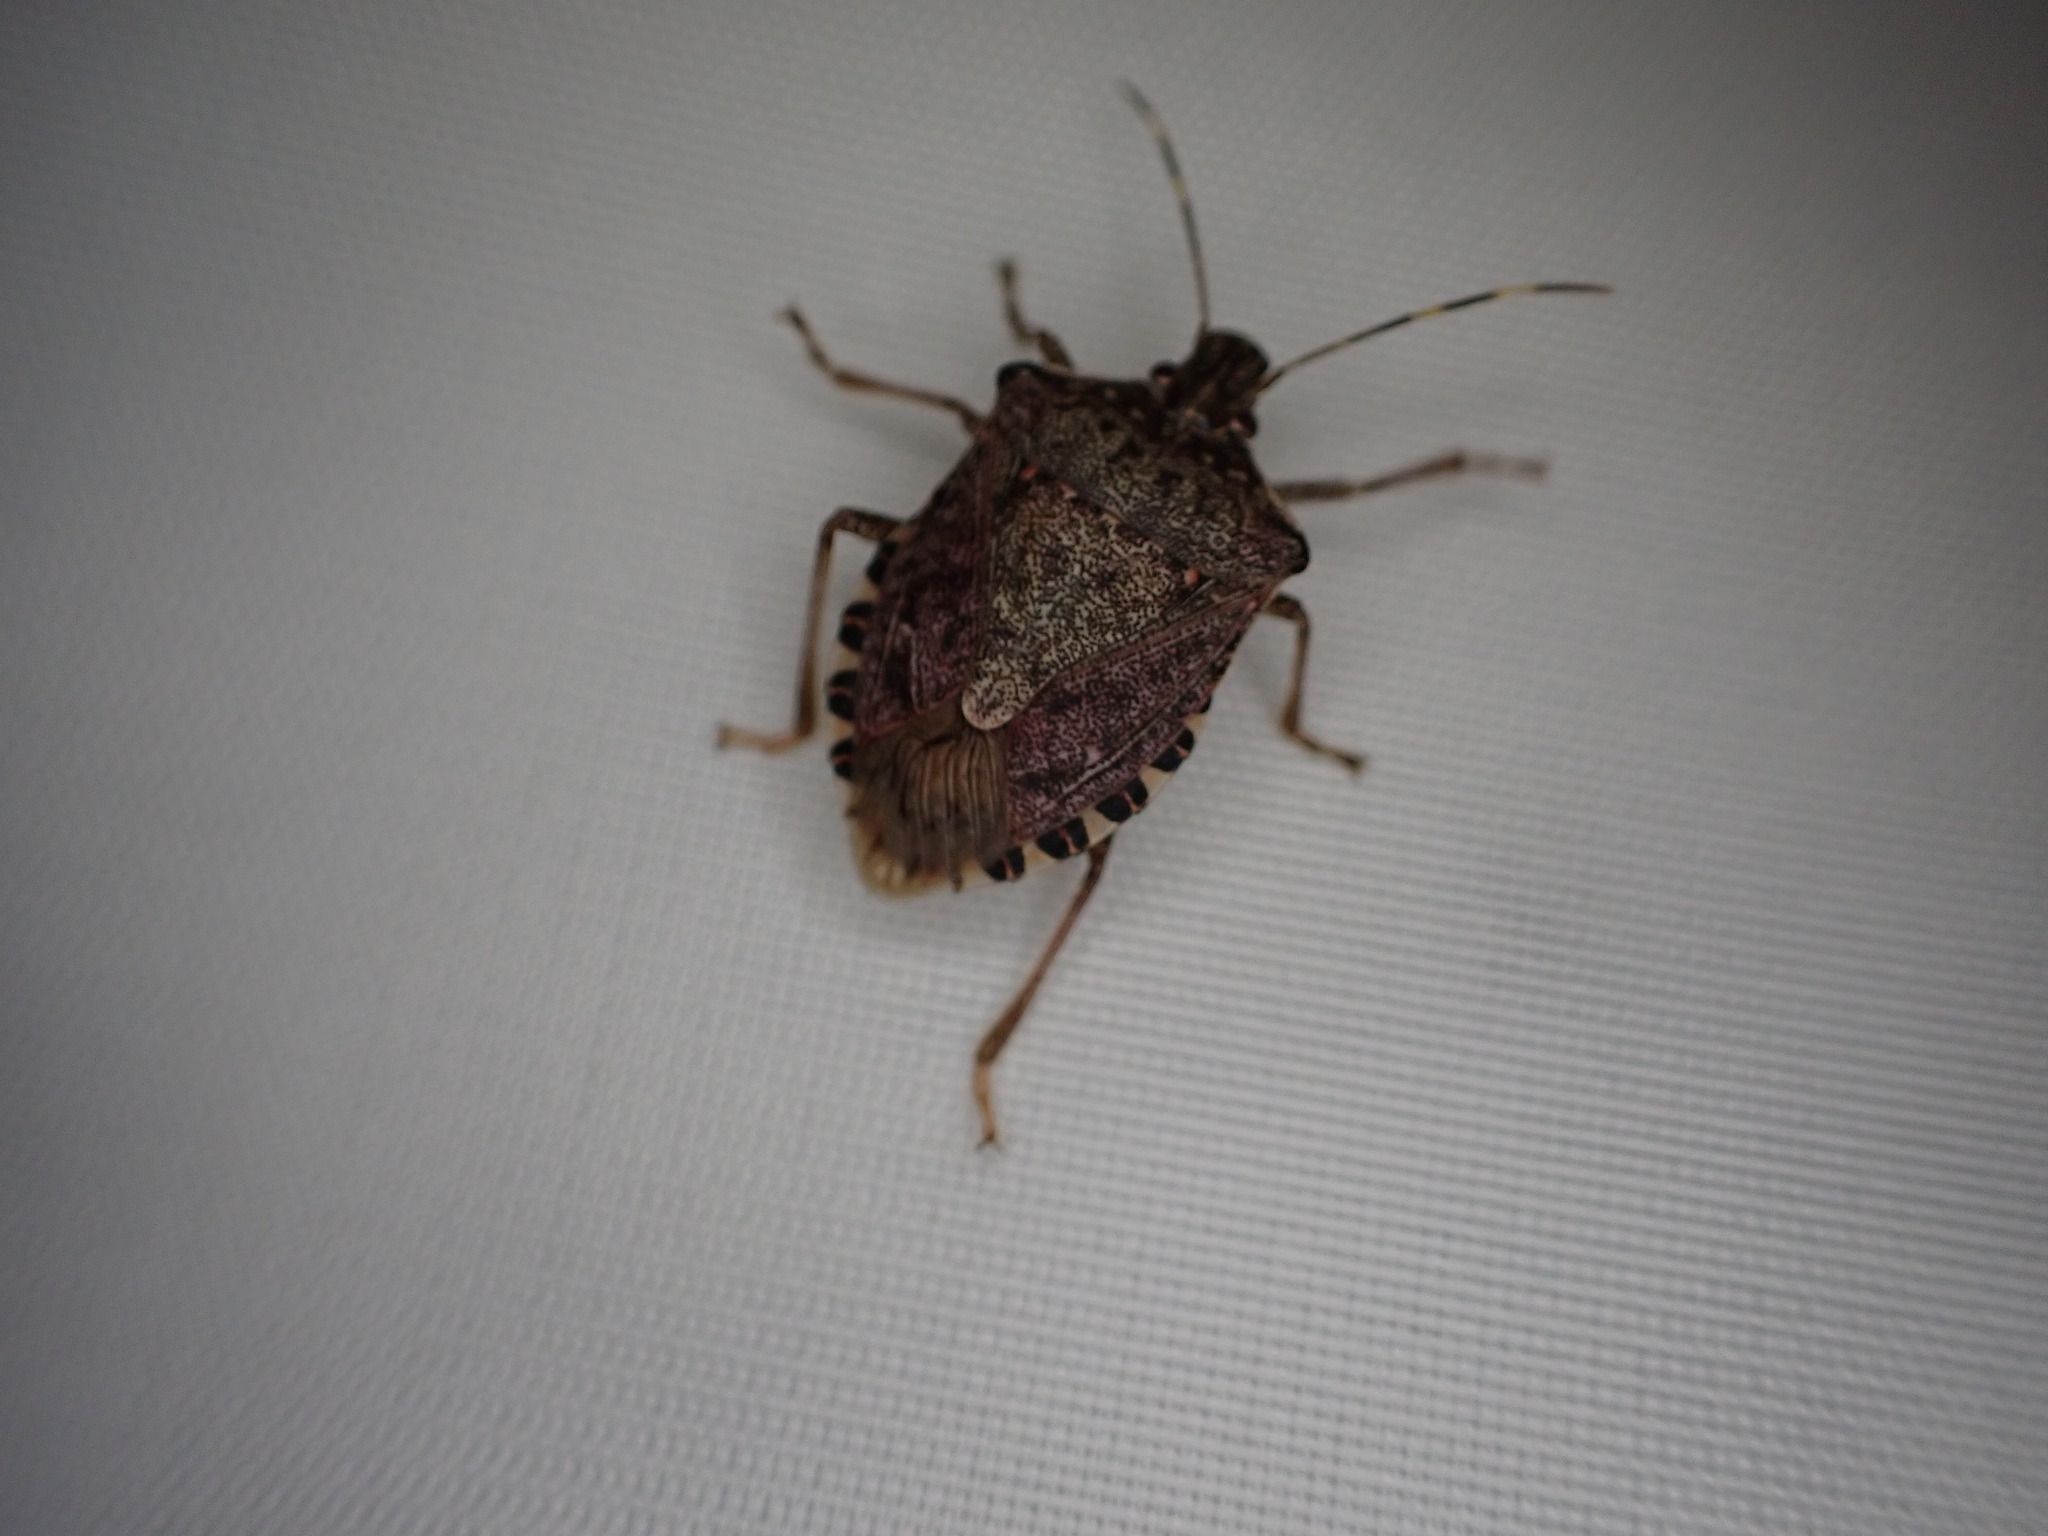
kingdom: Animalia
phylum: Arthropoda
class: Insecta
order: Hemiptera
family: Pentatomidae
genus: Halyomorpha
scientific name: Halyomorpha halys
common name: Brown marmorated stink bug
